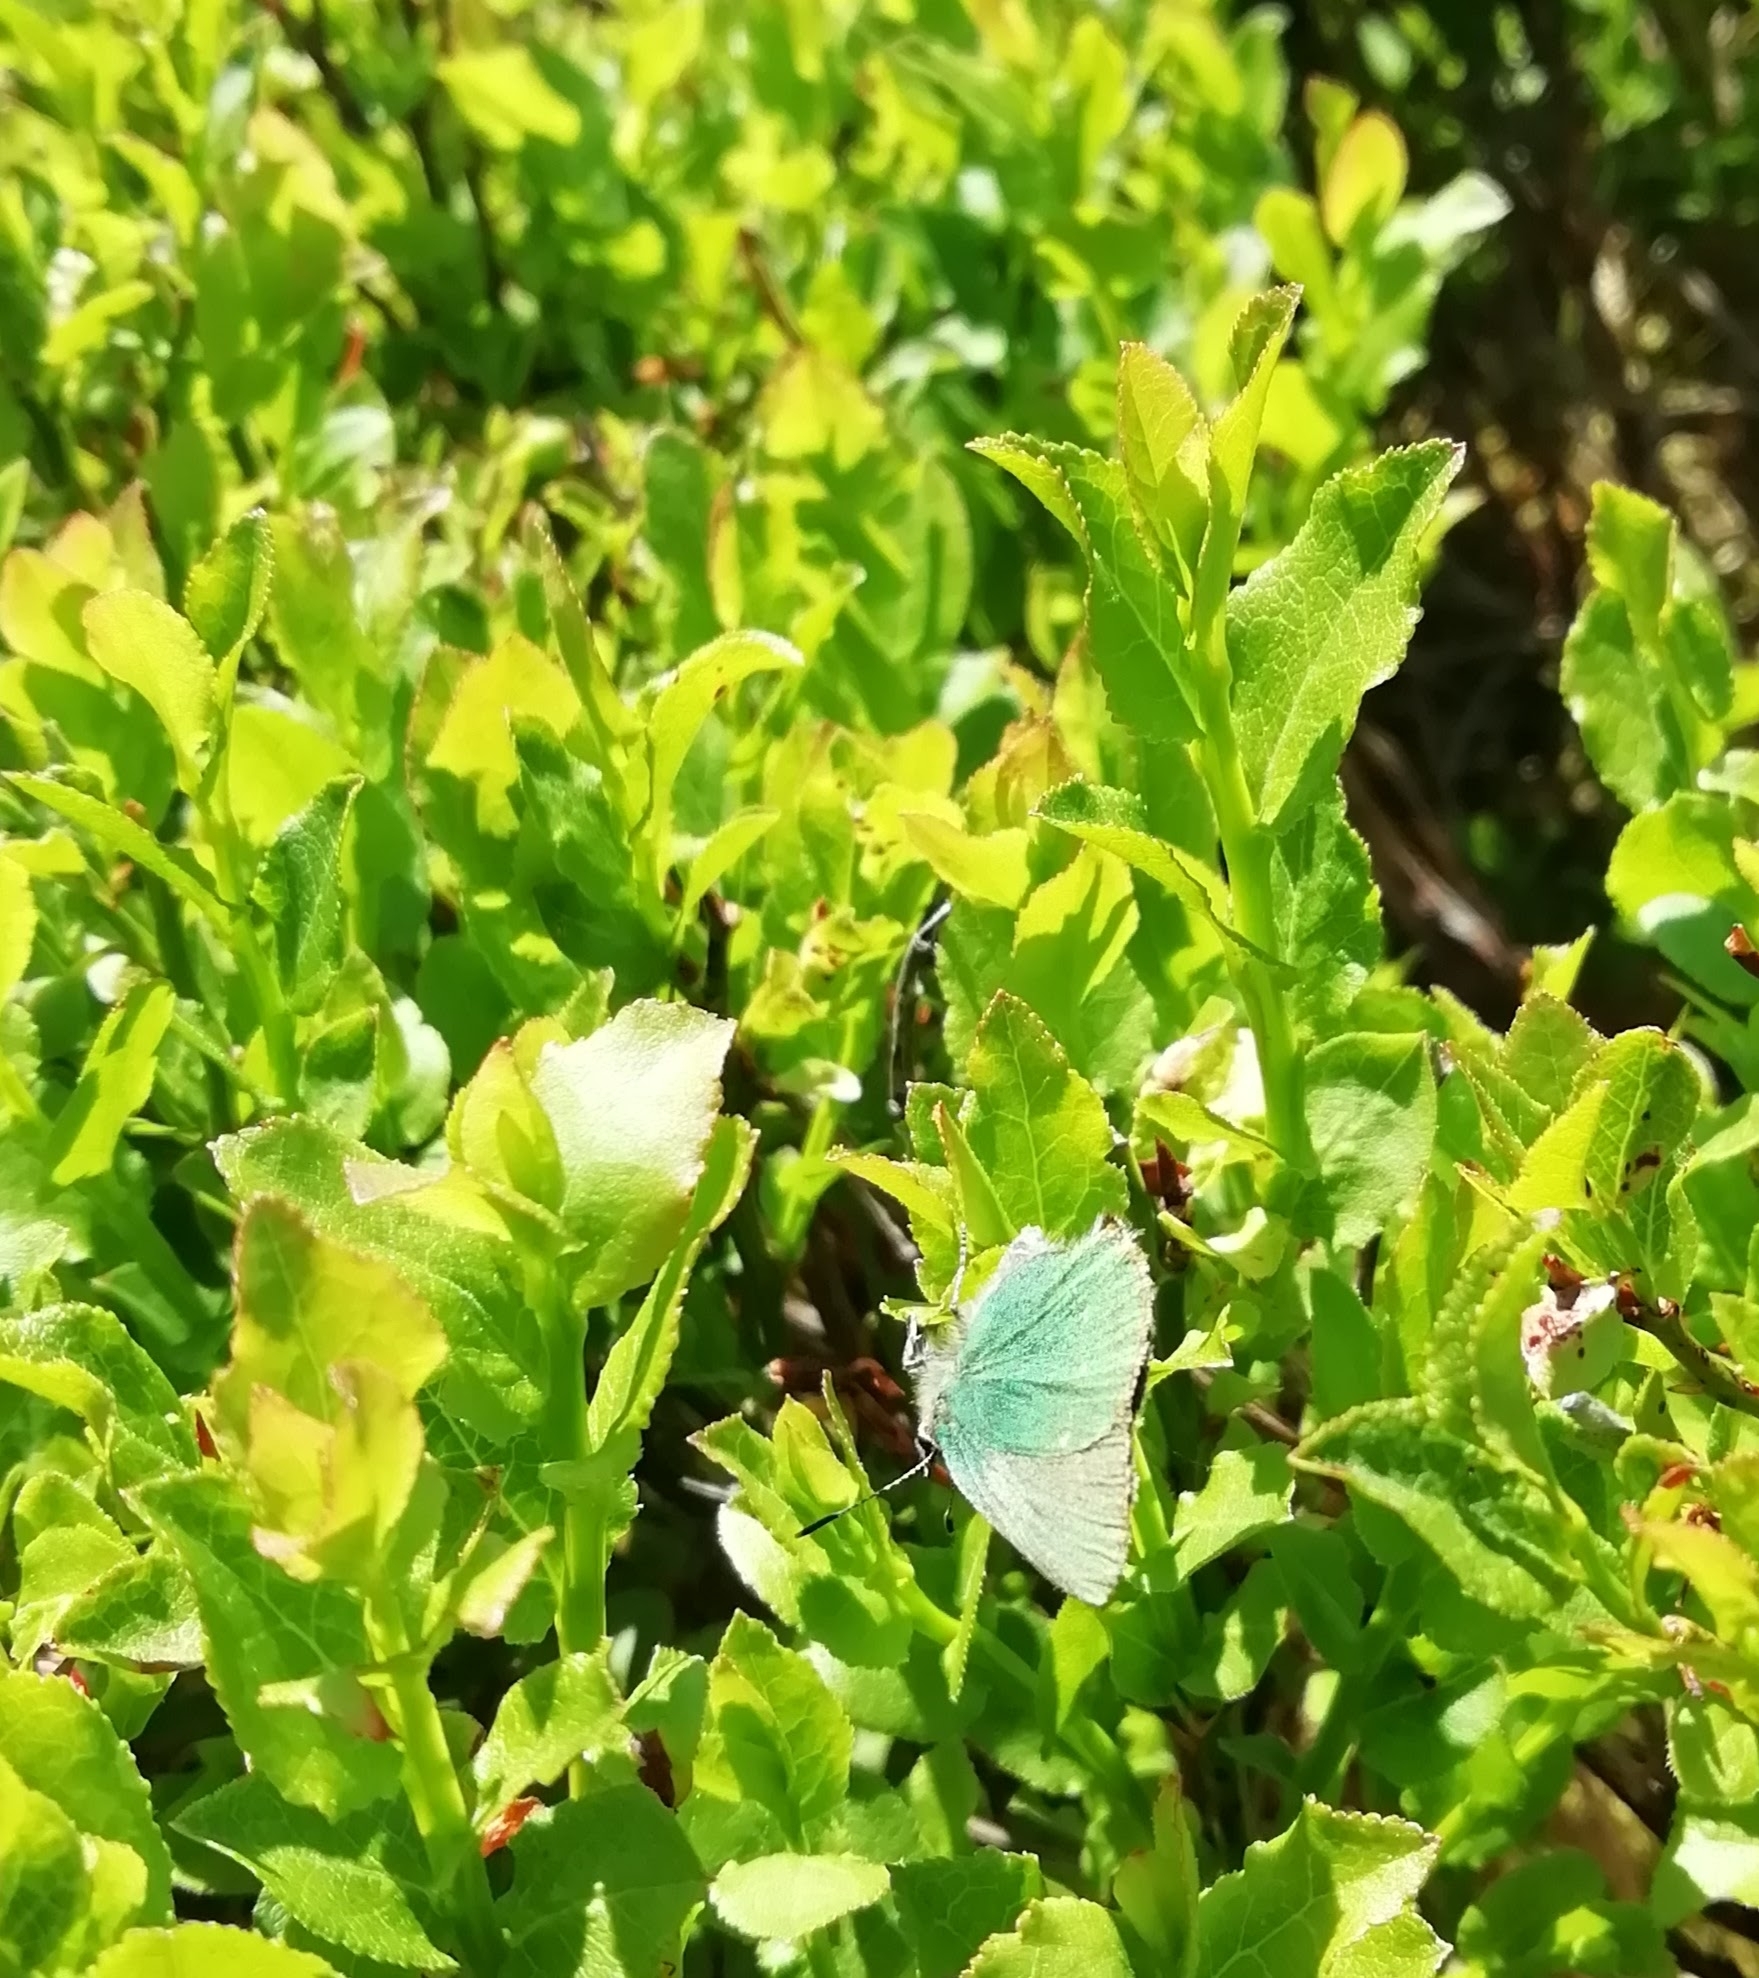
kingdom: Animalia
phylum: Arthropoda
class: Insecta
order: Lepidoptera
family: Lycaenidae
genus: Callophrys
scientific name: Callophrys rubi
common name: Green hairstreak
